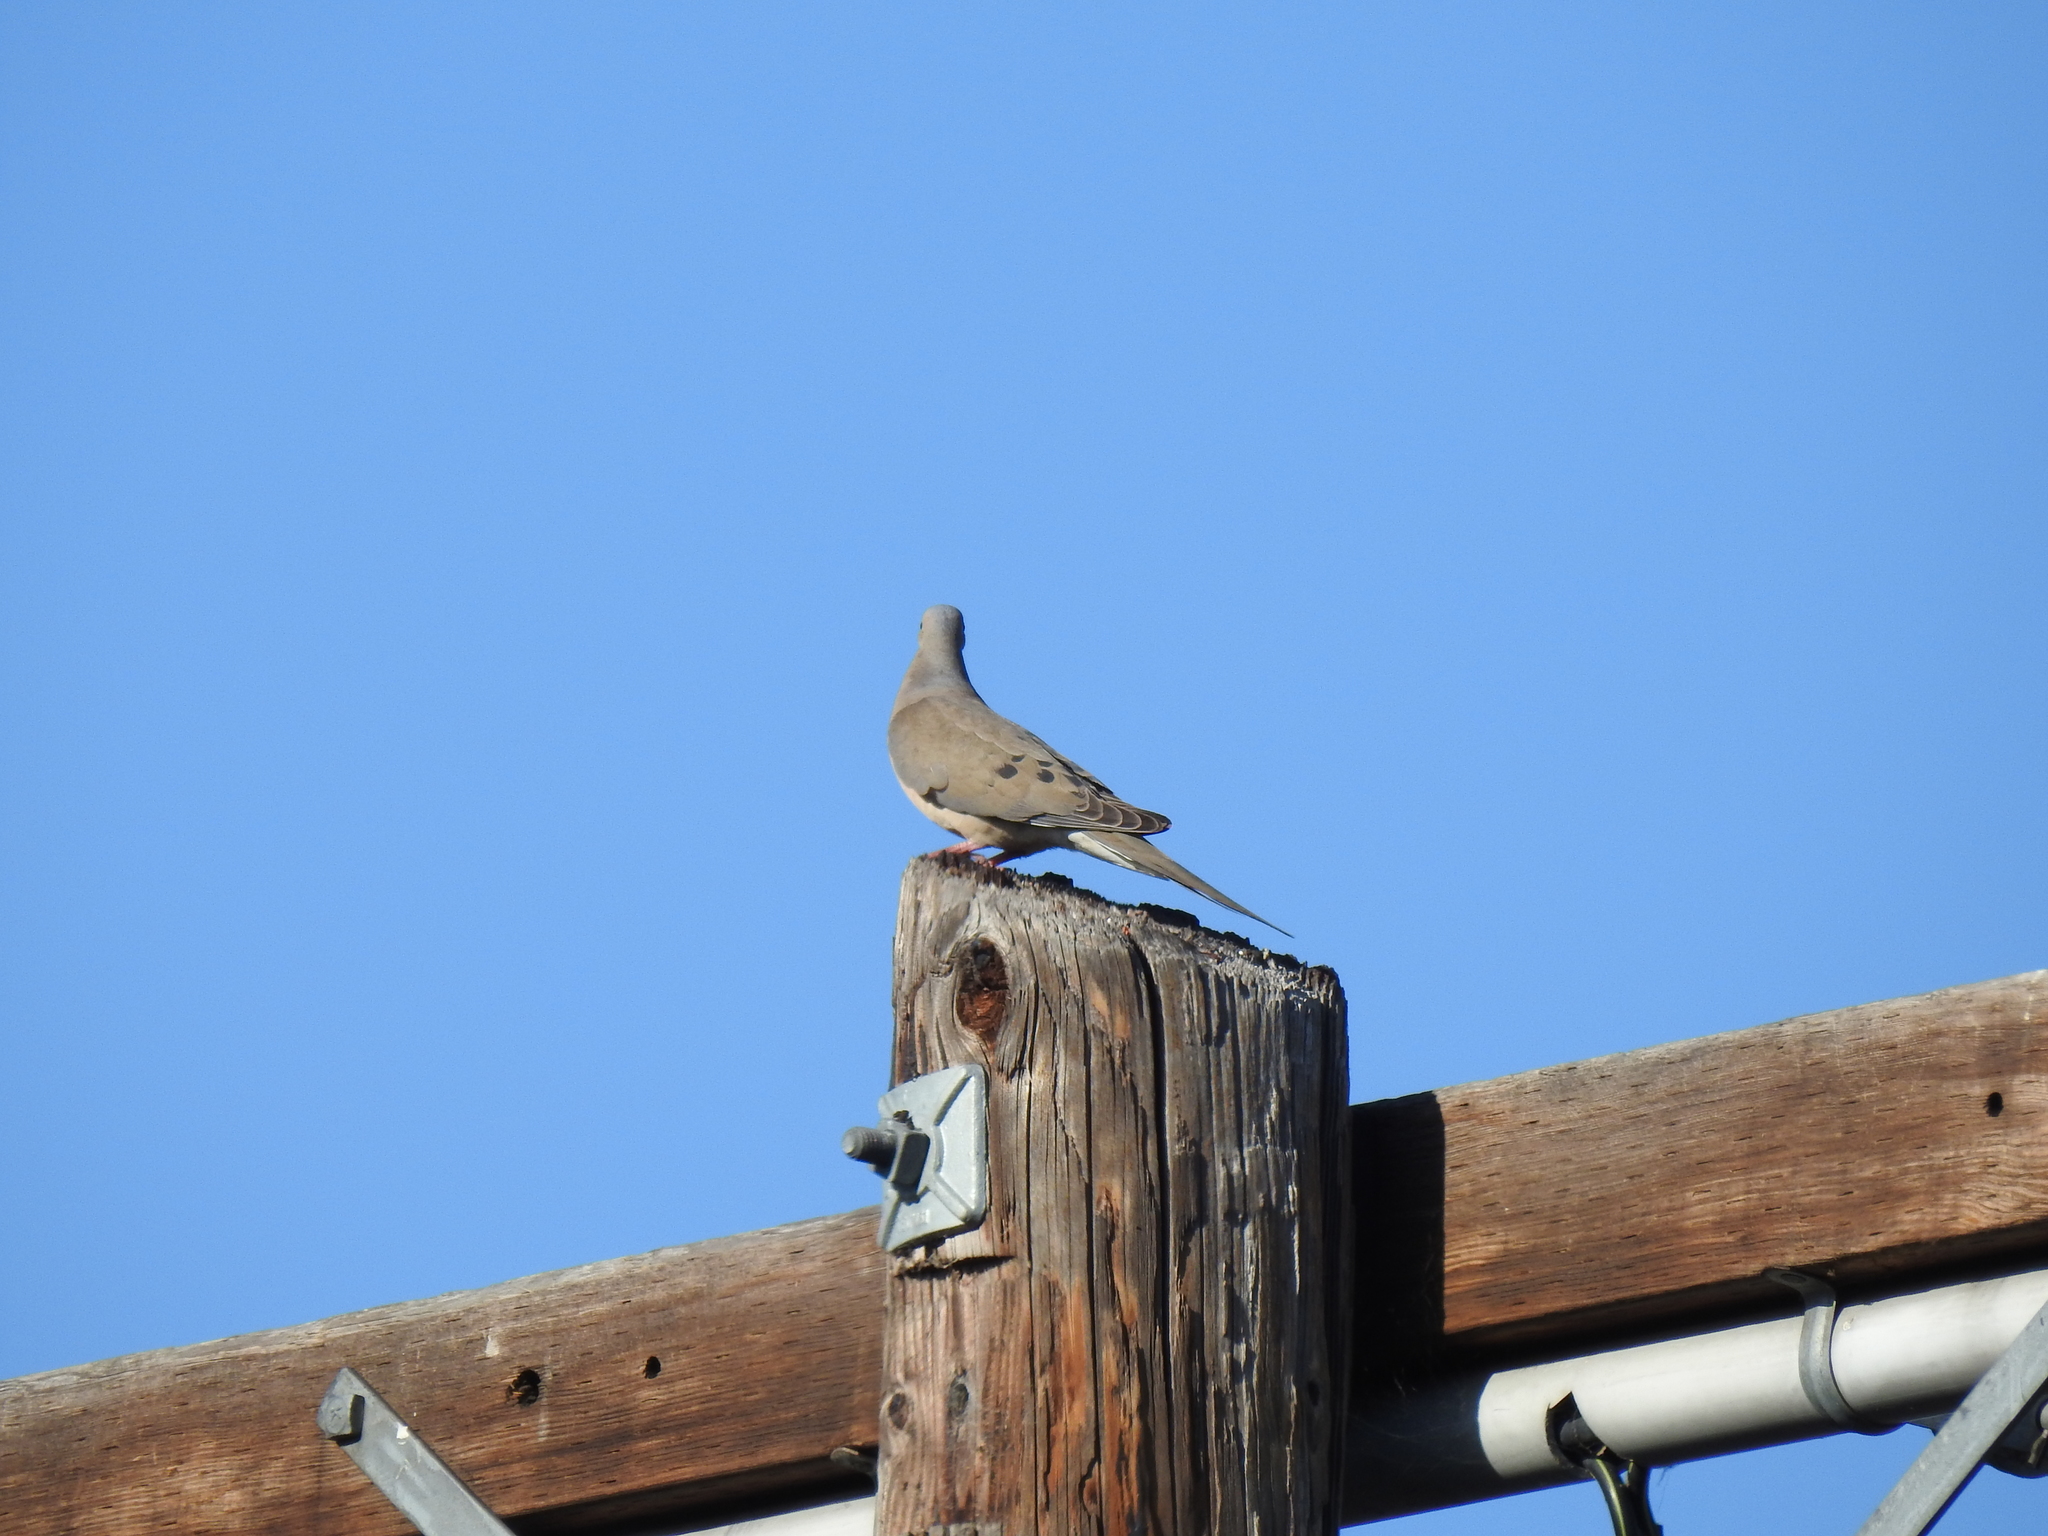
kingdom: Animalia
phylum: Chordata
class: Aves
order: Columbiformes
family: Columbidae
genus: Zenaida
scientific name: Zenaida macroura
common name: Mourning dove
